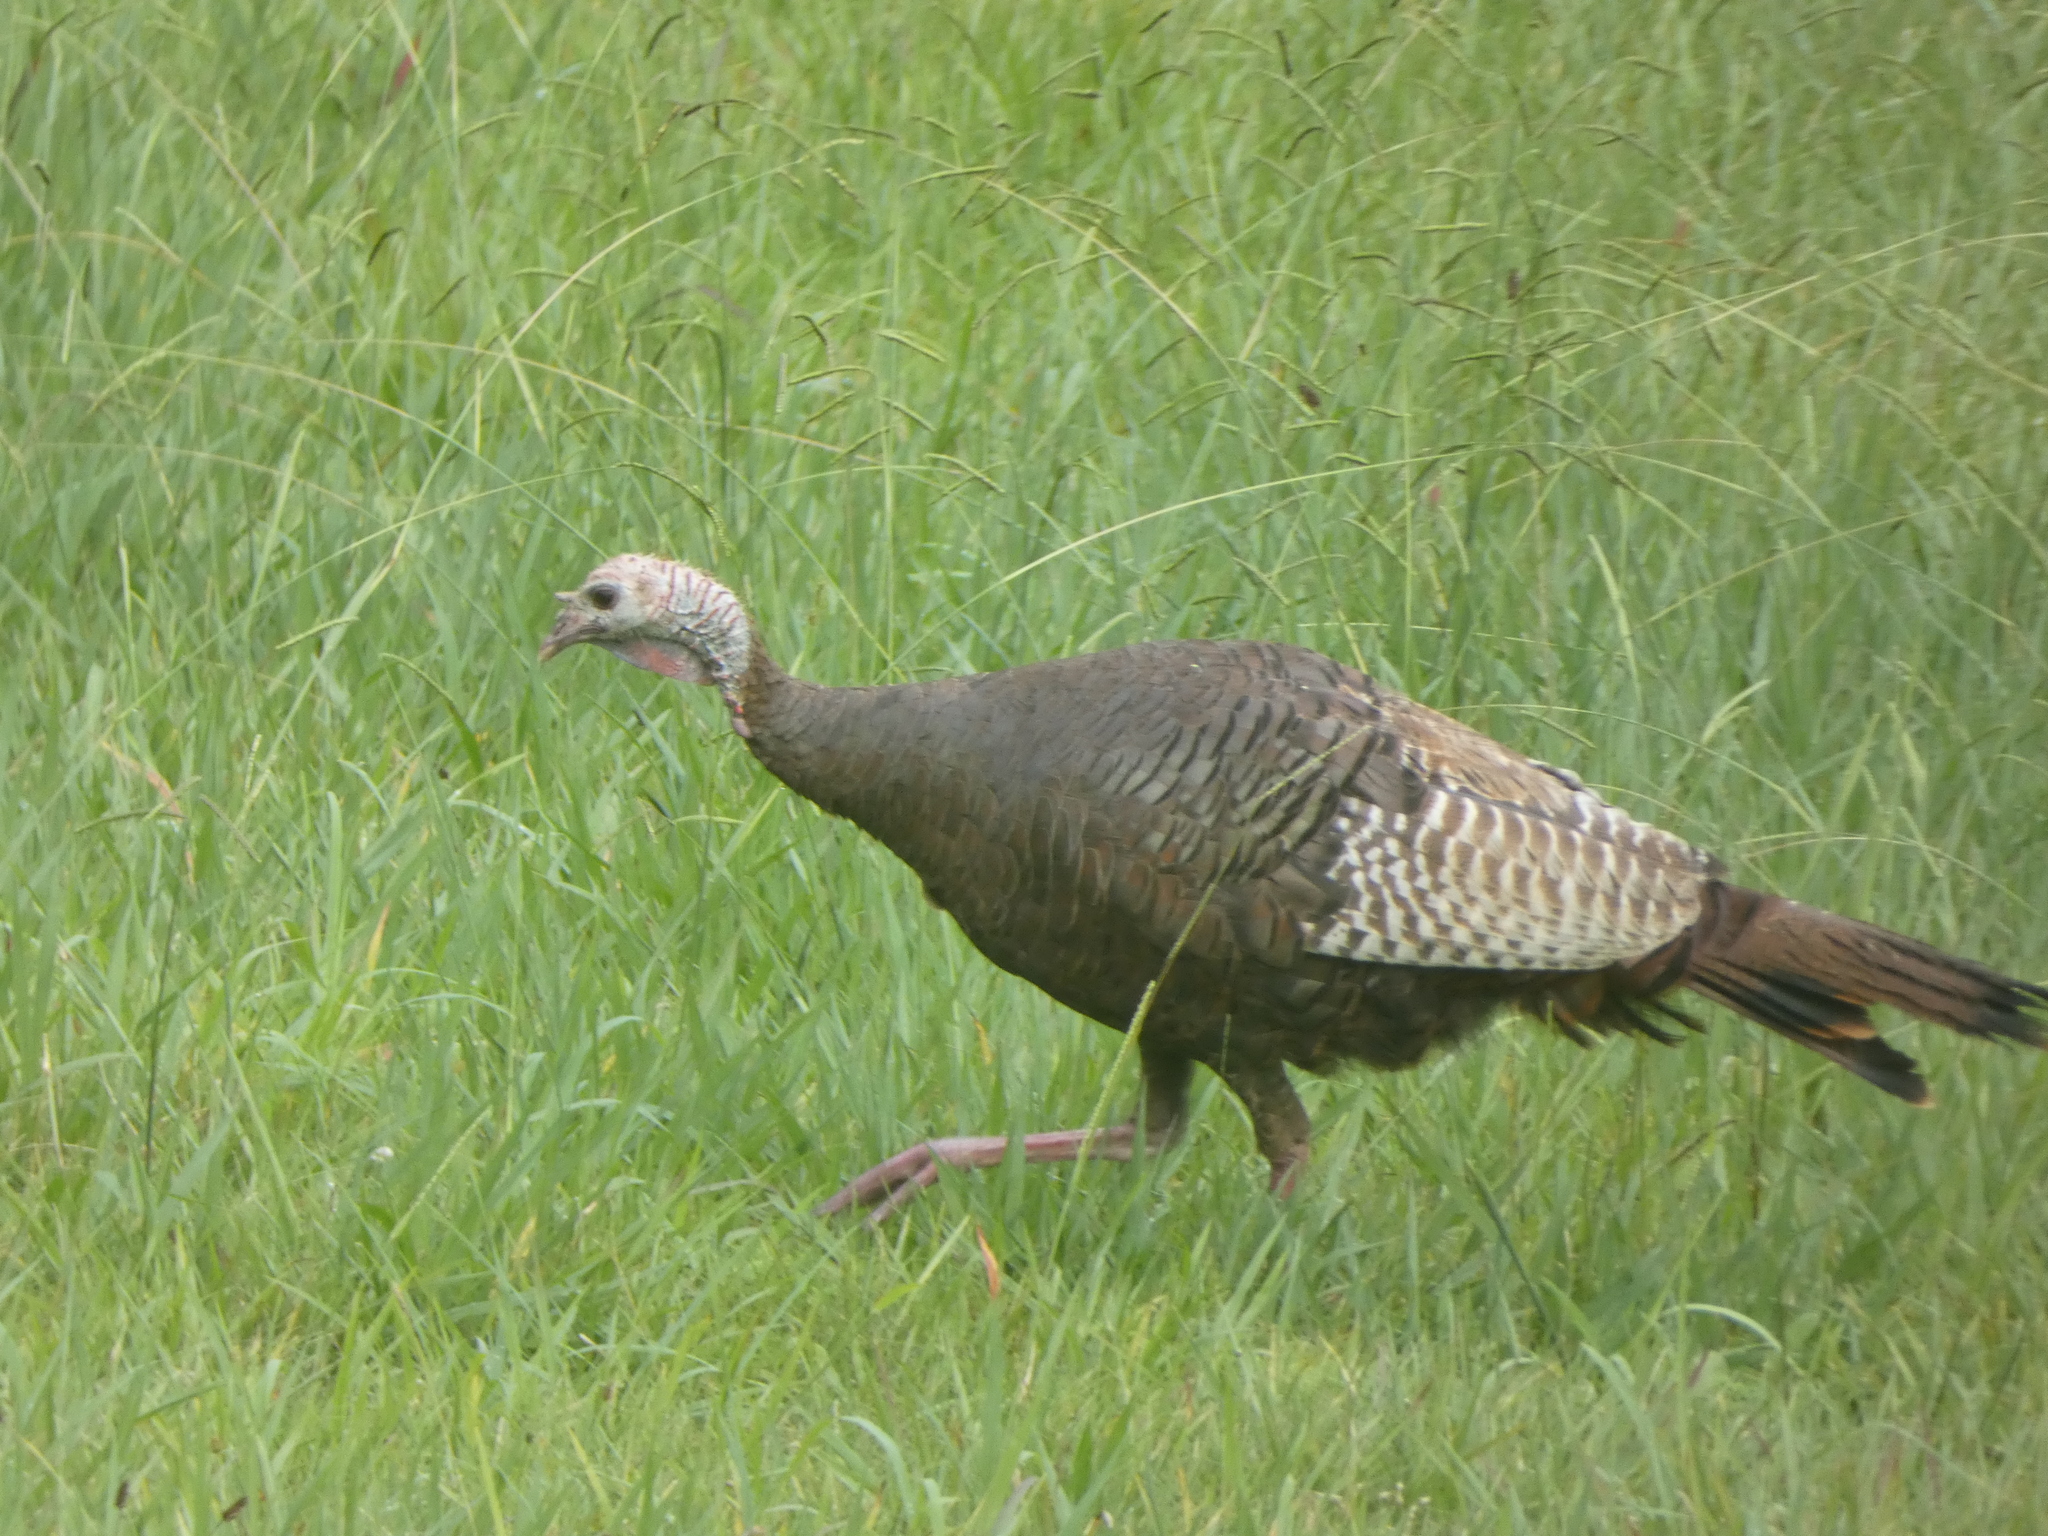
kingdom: Animalia
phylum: Chordata
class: Aves
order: Galliformes
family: Phasianidae
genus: Meleagris
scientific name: Meleagris gallopavo
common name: Wild turkey
